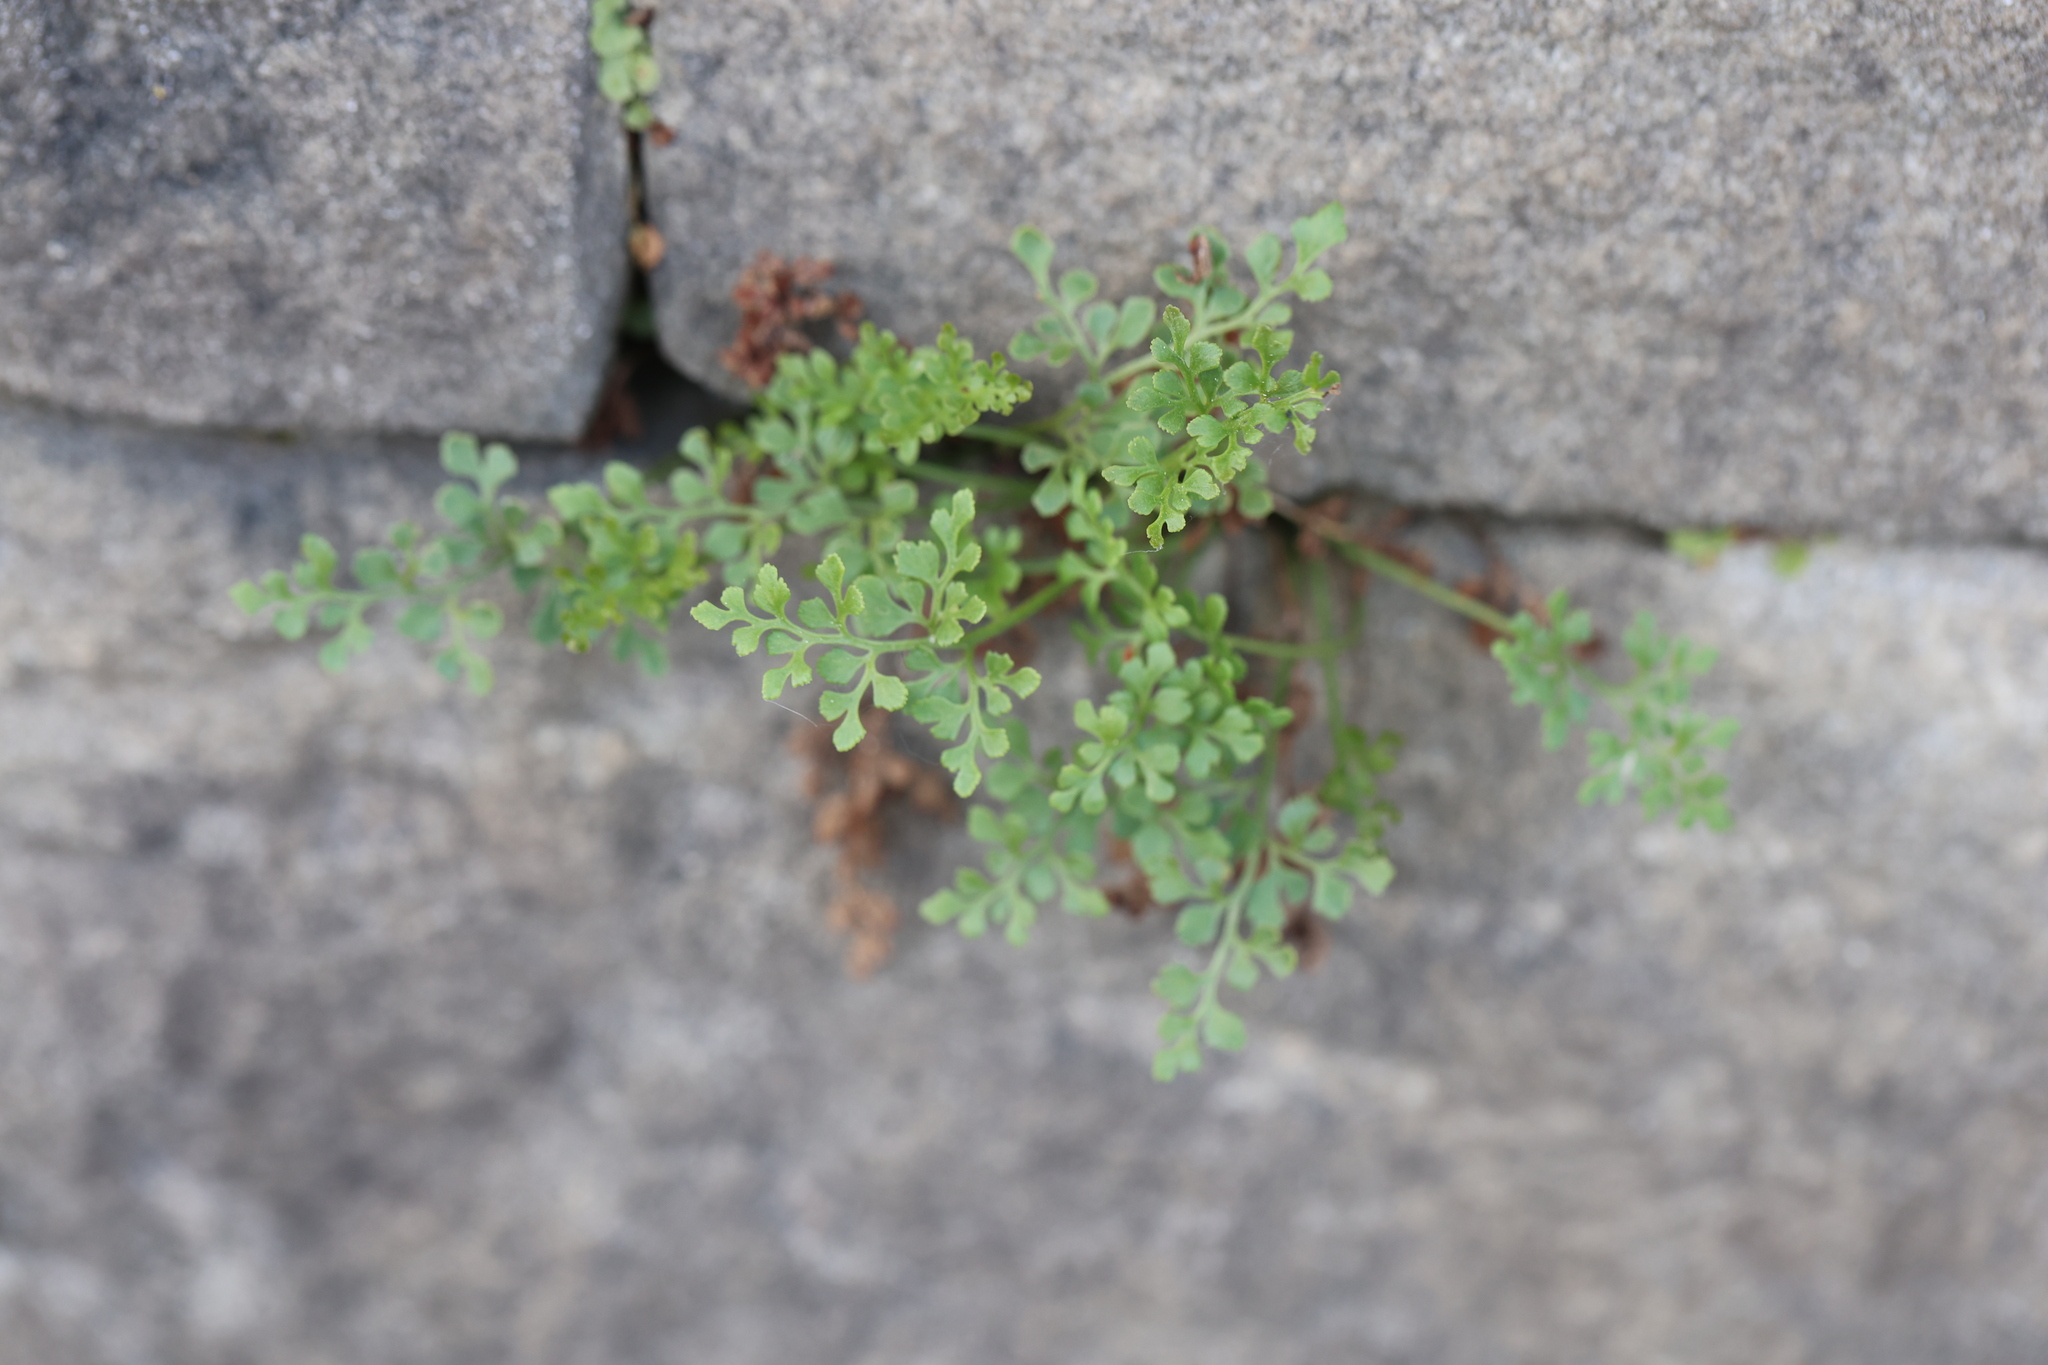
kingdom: Plantae
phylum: Tracheophyta
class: Polypodiopsida
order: Polypodiales
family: Aspleniaceae
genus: Asplenium
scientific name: Asplenium ruta-muraria
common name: Wall-rue
